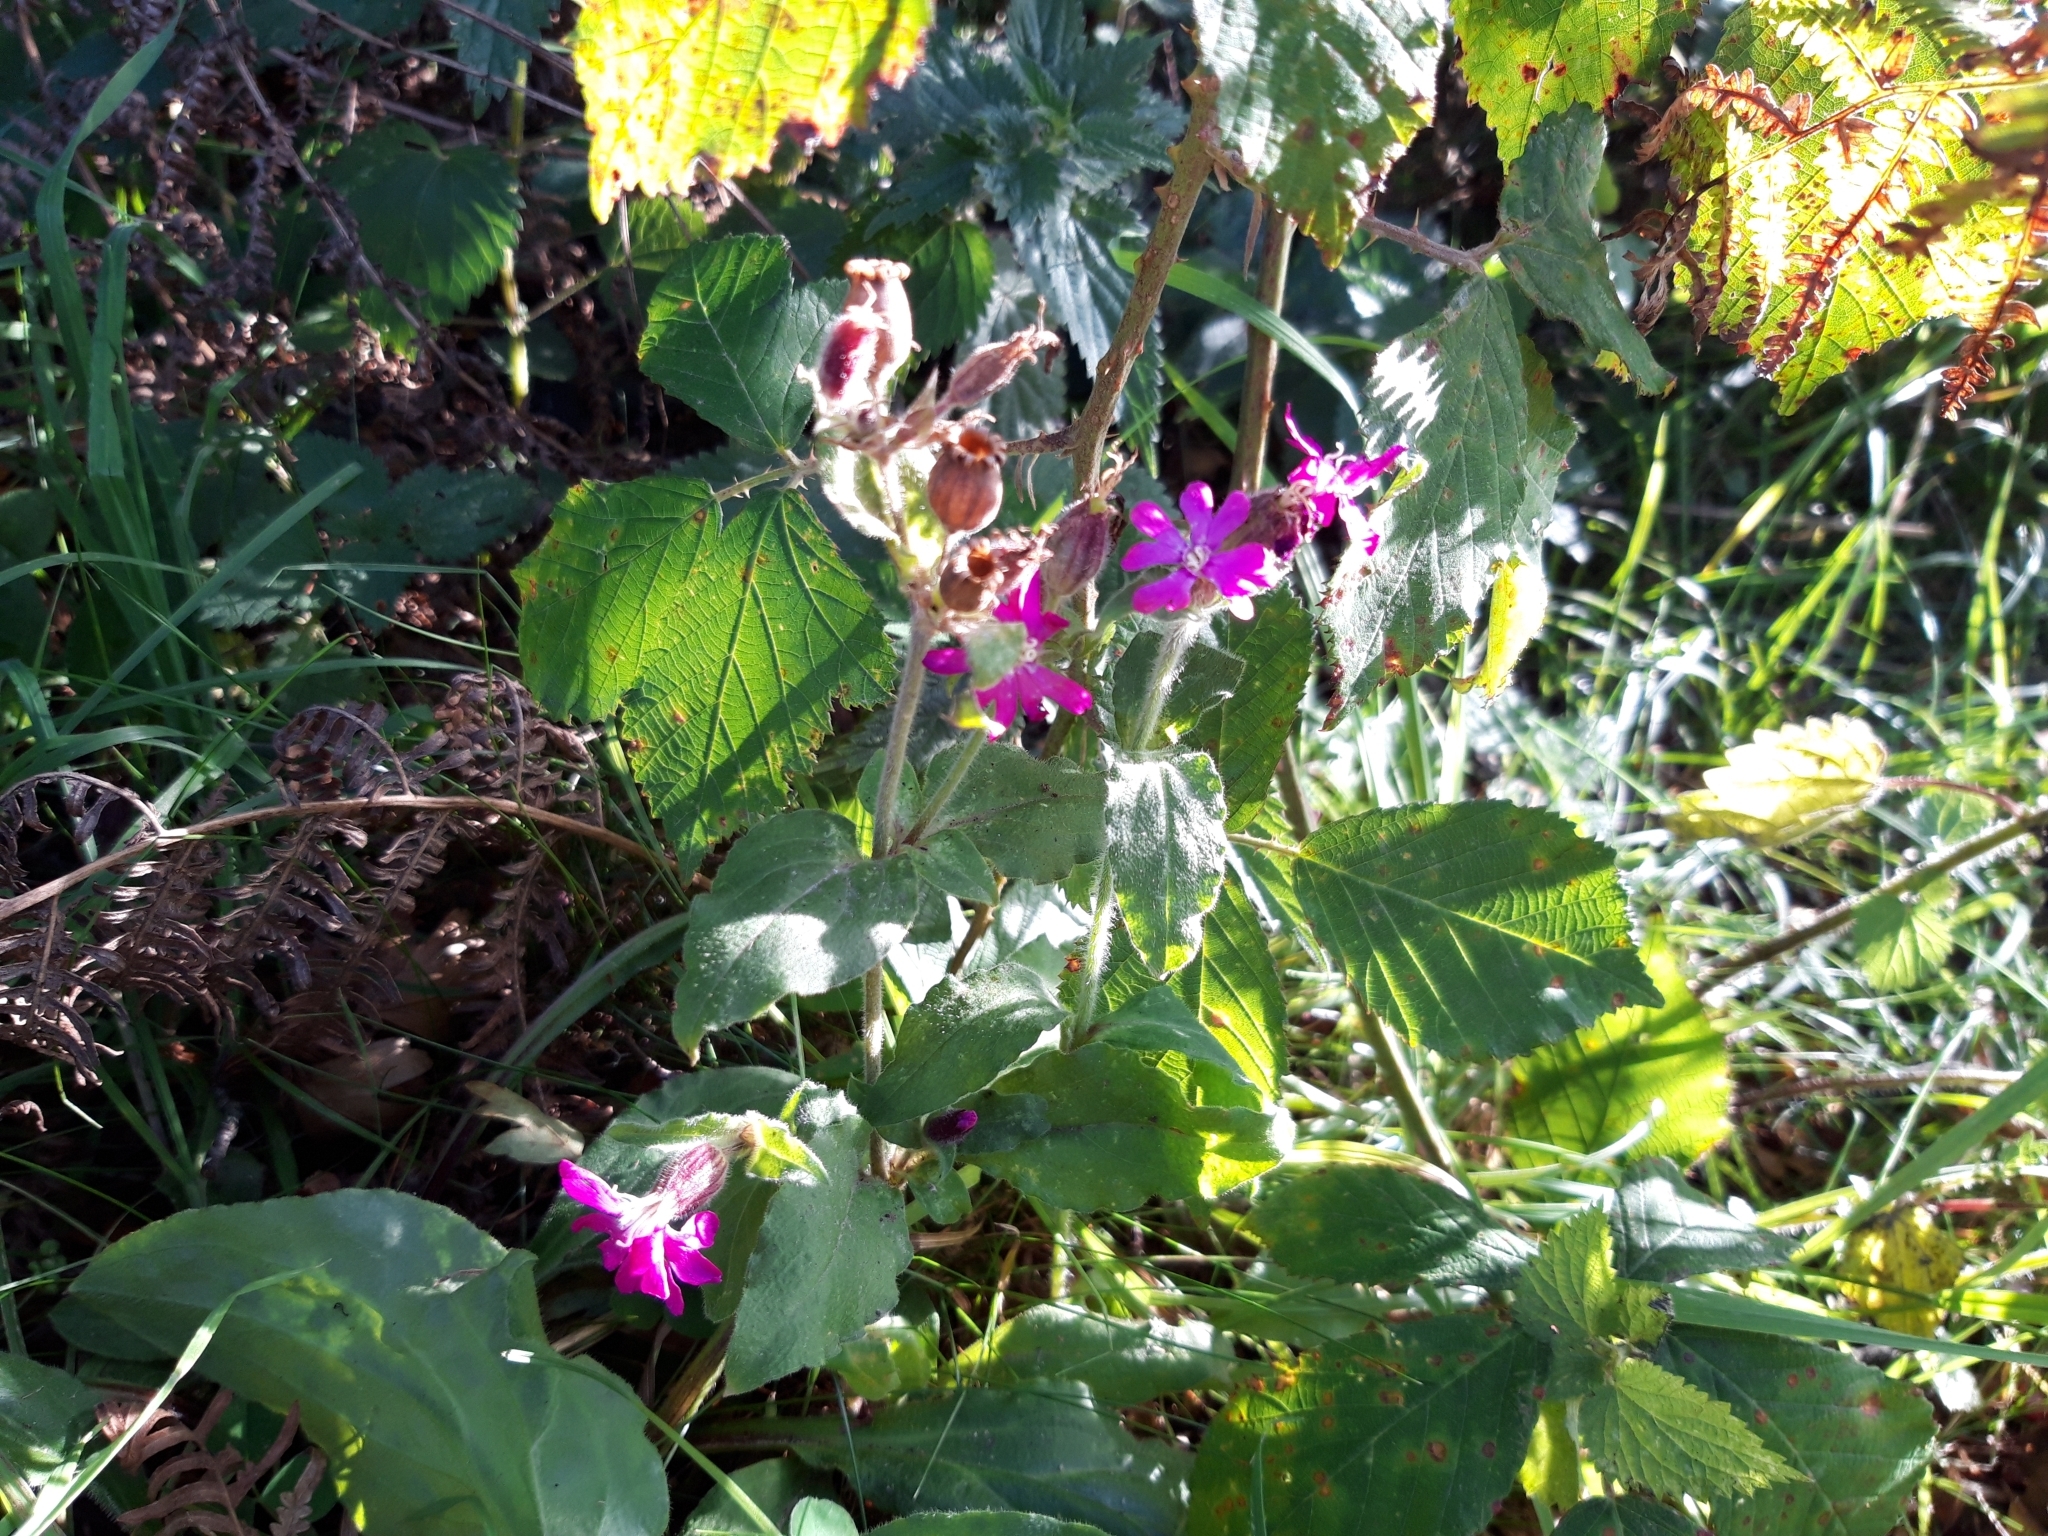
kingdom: Plantae
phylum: Tracheophyta
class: Magnoliopsida
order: Caryophyllales
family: Caryophyllaceae
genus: Silene
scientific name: Silene dioica
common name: Red campion
